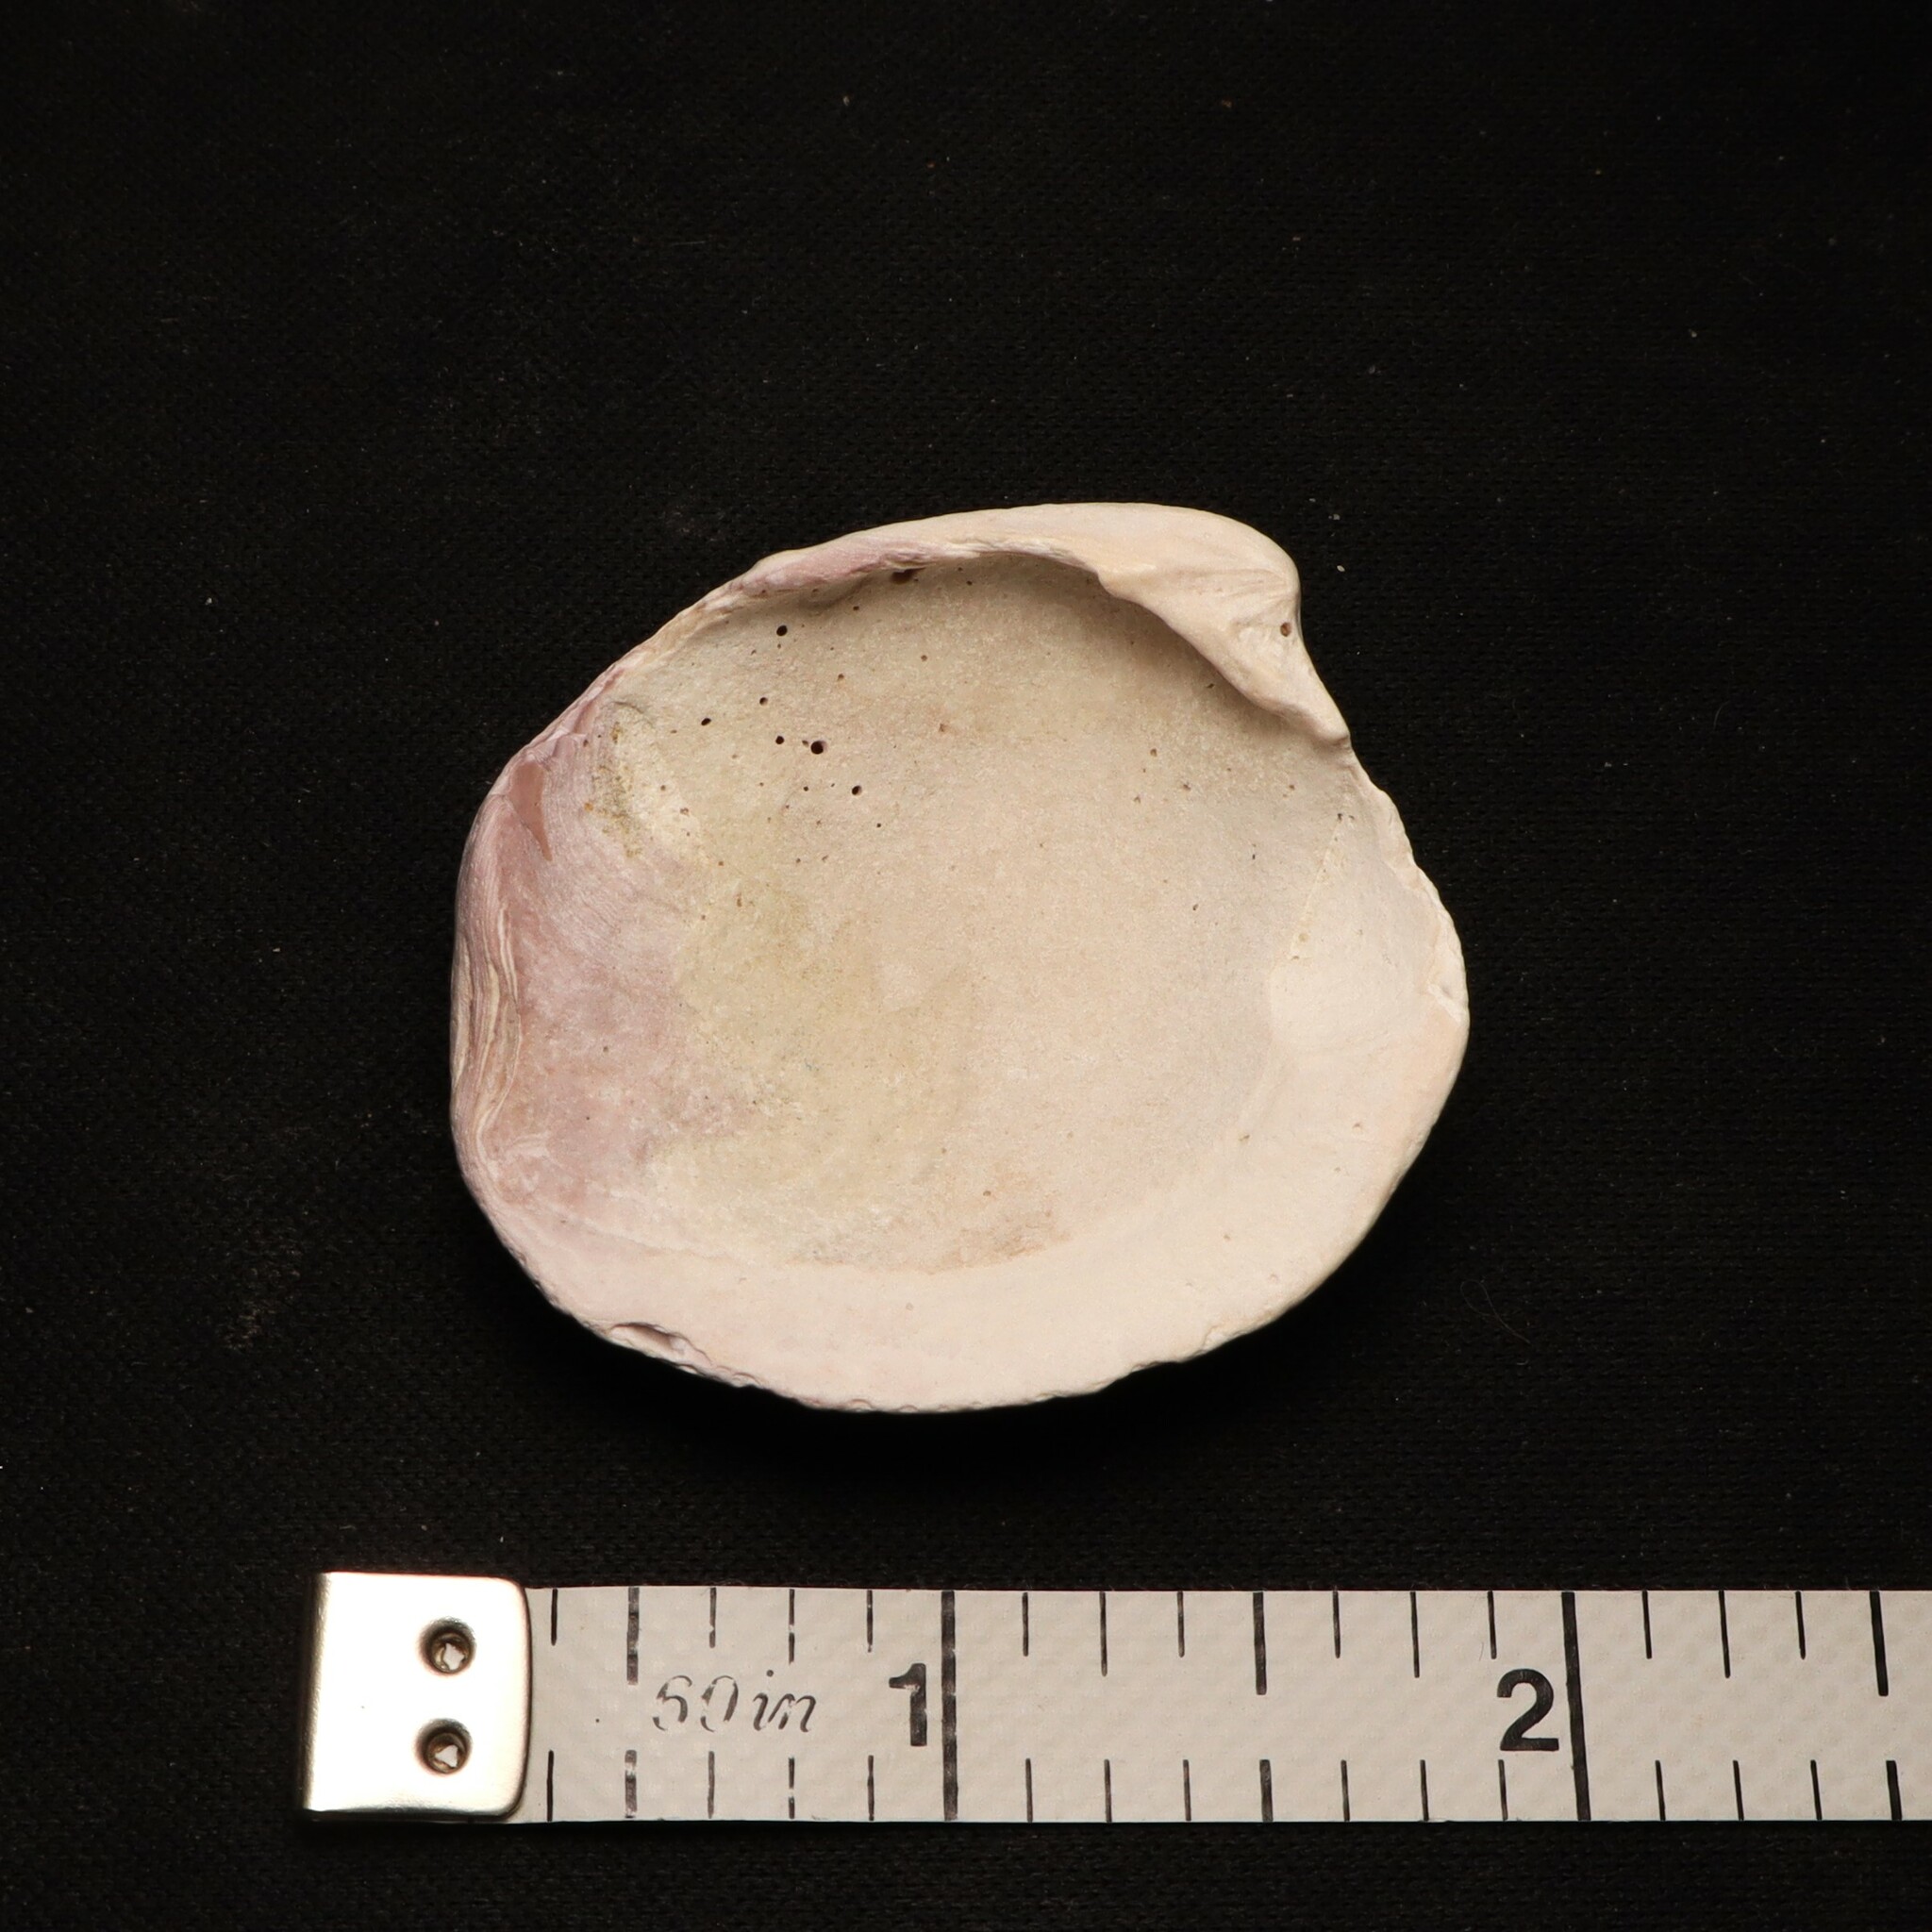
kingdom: Animalia
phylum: Mollusca
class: Bivalvia
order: Venerida
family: Veneridae
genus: Mercenaria
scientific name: Mercenaria mercenaria
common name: American hard-shelled clam
